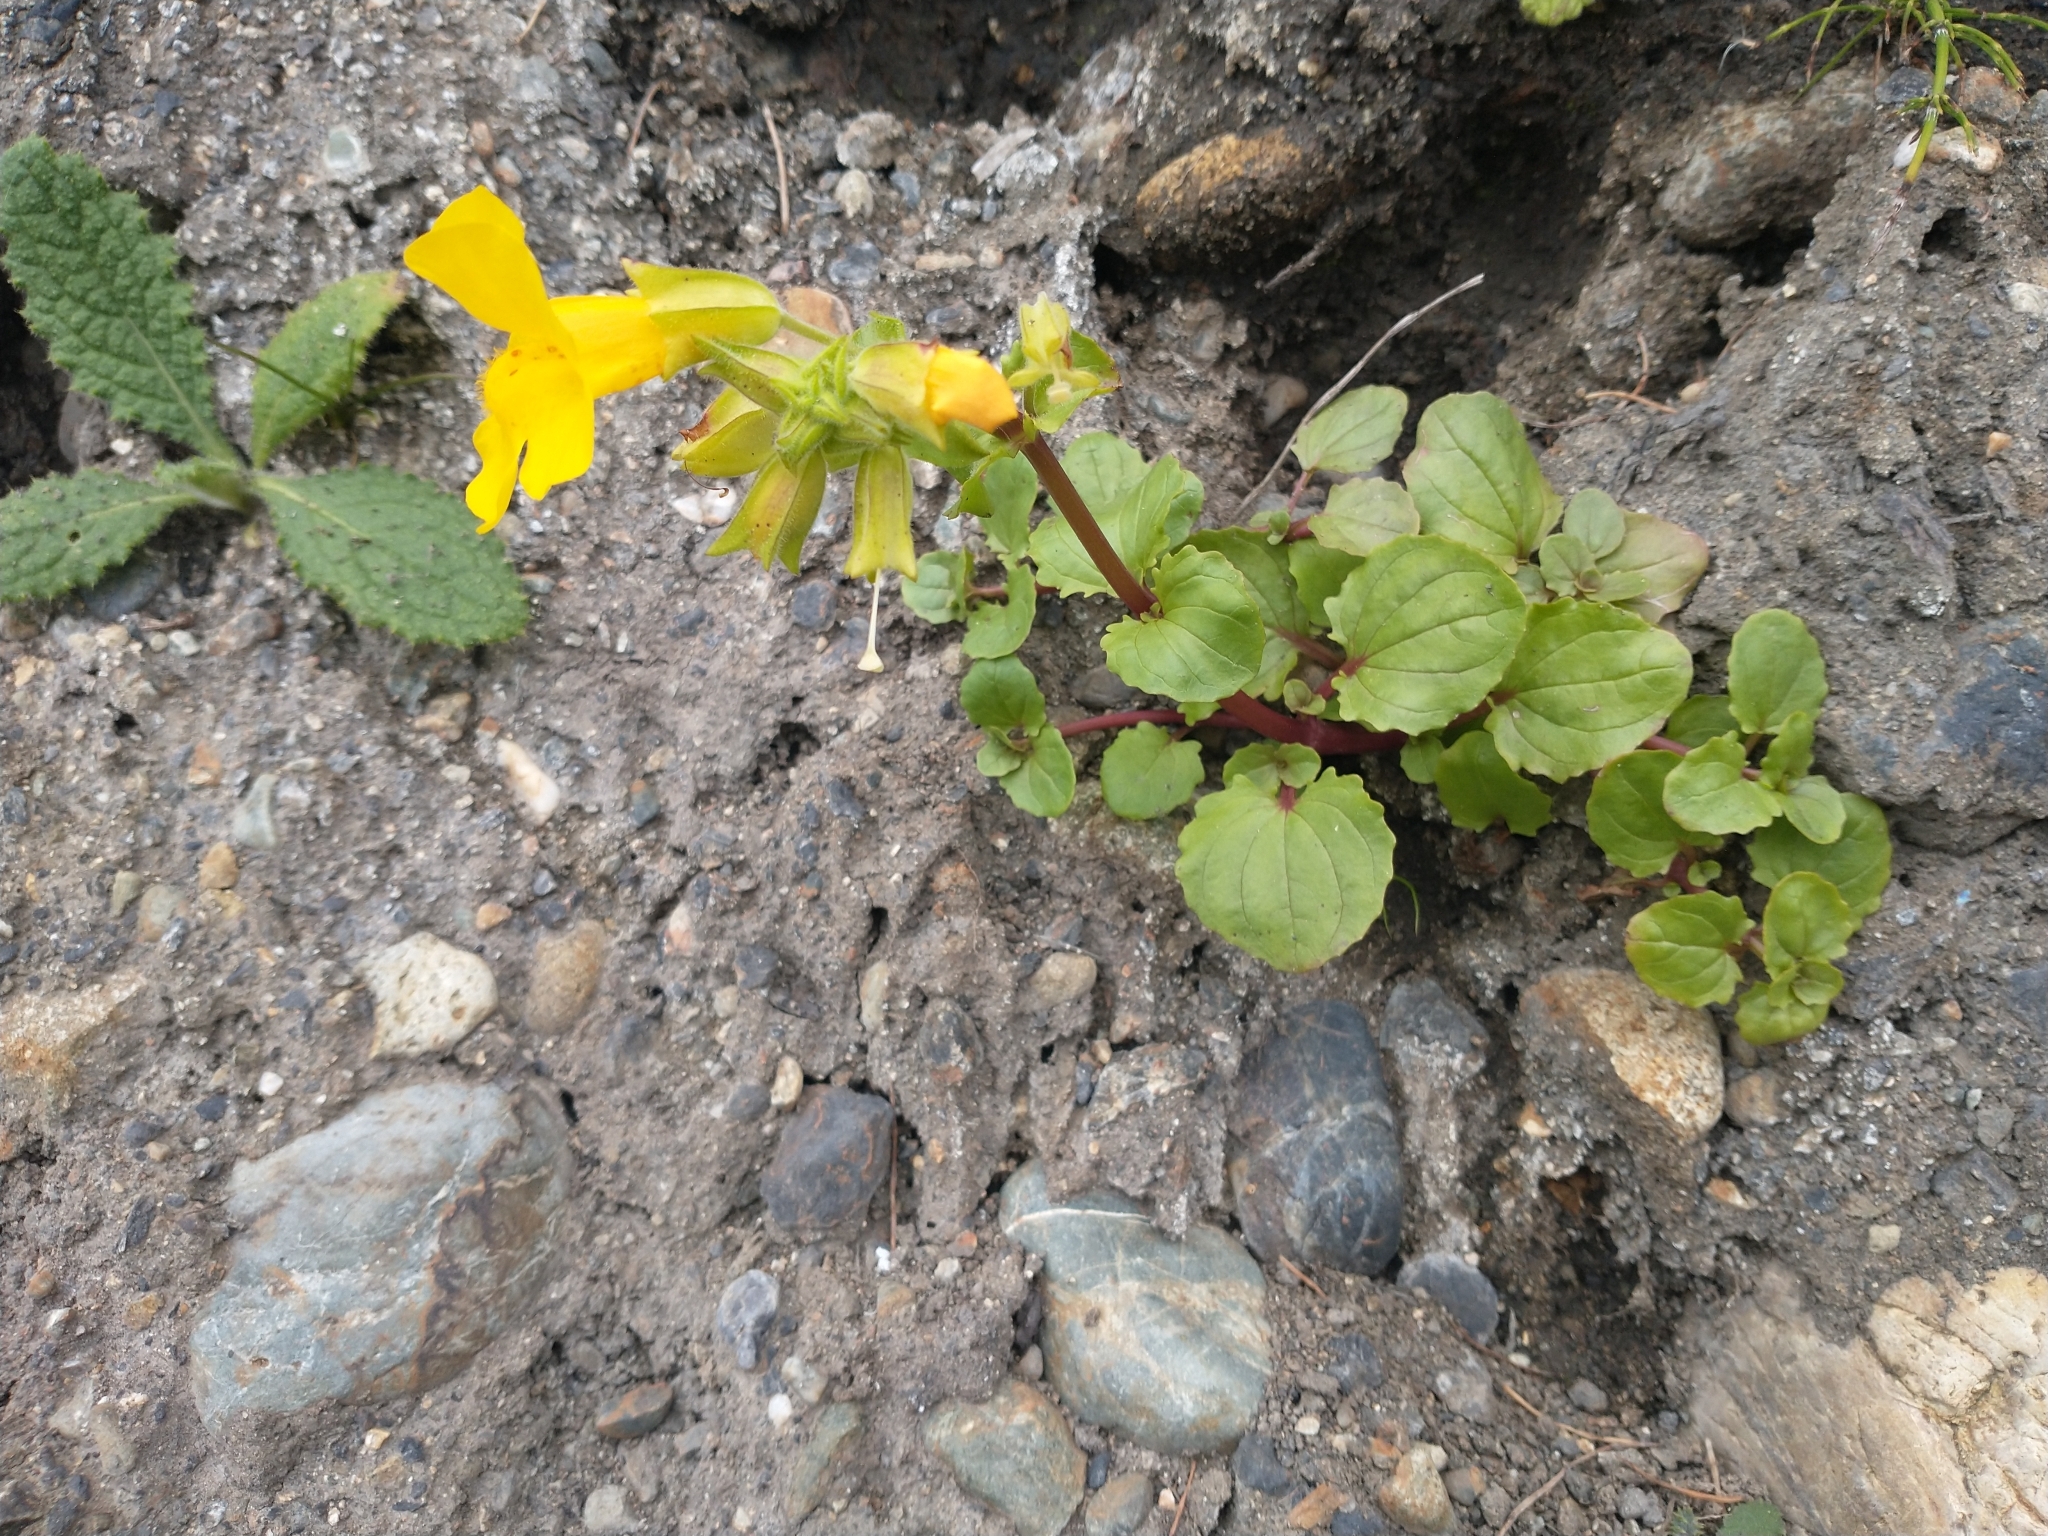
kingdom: Plantae
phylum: Tracheophyta
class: Magnoliopsida
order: Lamiales
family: Phrymaceae
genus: Erythranthe
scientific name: Erythranthe grandis
